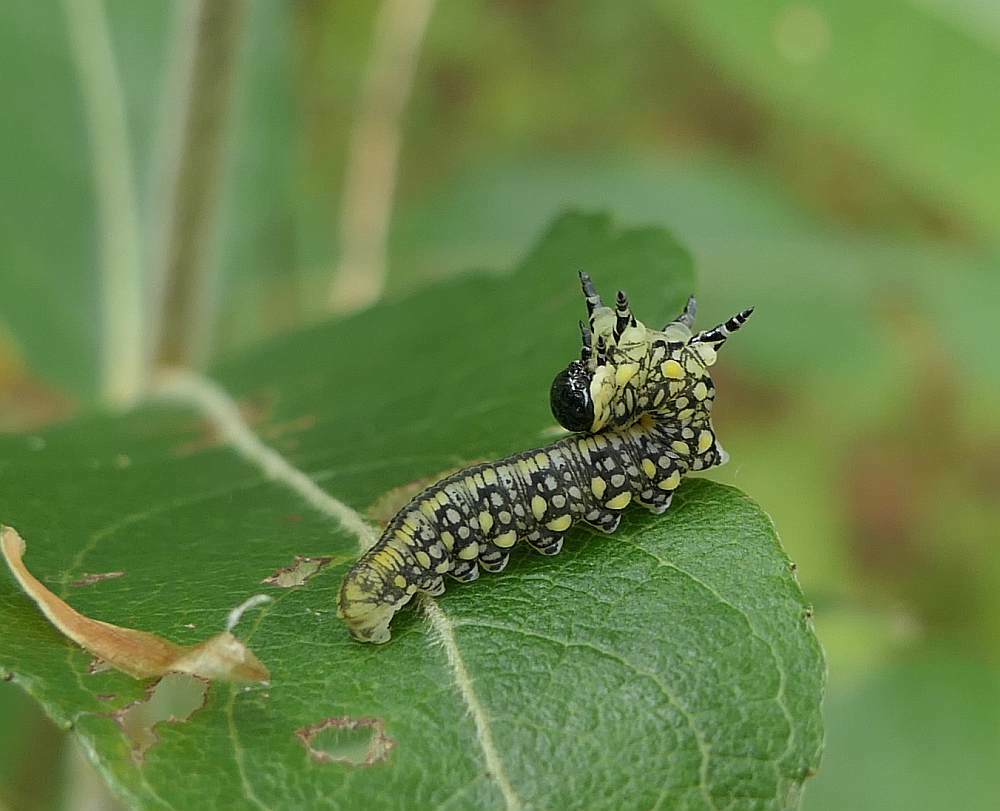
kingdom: Animalia
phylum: Arthropoda
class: Insecta
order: Hymenoptera
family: Diprionidae
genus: Diprion
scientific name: Diprion similis
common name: Pine sawfly
